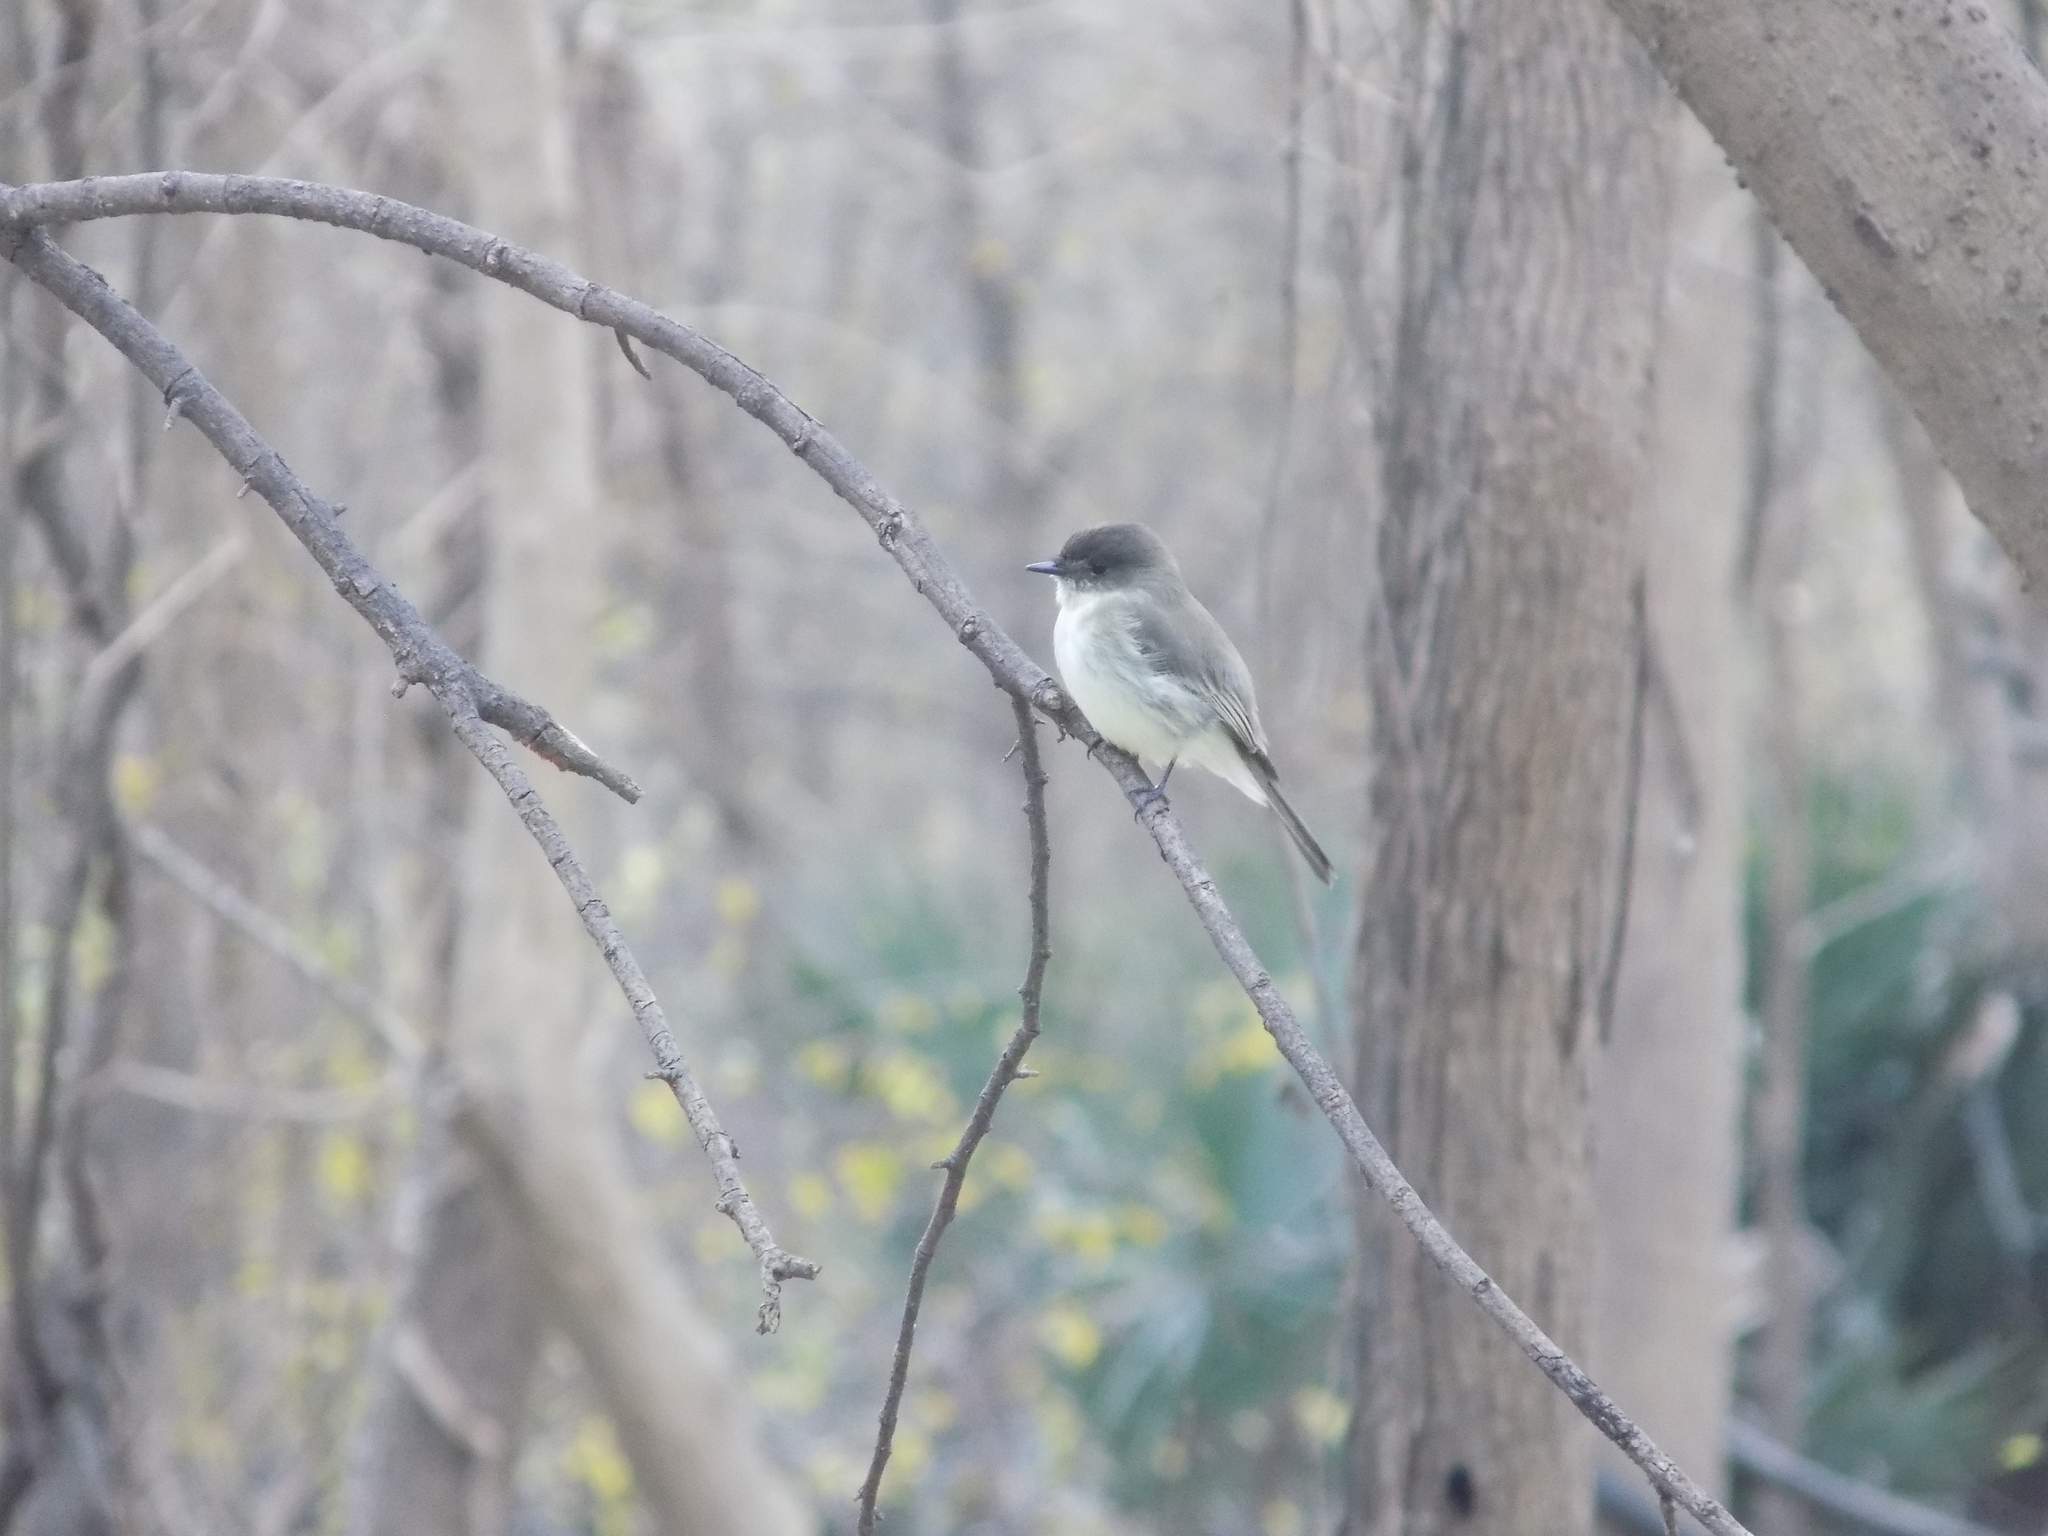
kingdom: Animalia
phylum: Chordata
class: Aves
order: Passeriformes
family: Tyrannidae
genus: Sayornis
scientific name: Sayornis phoebe
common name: Eastern phoebe
